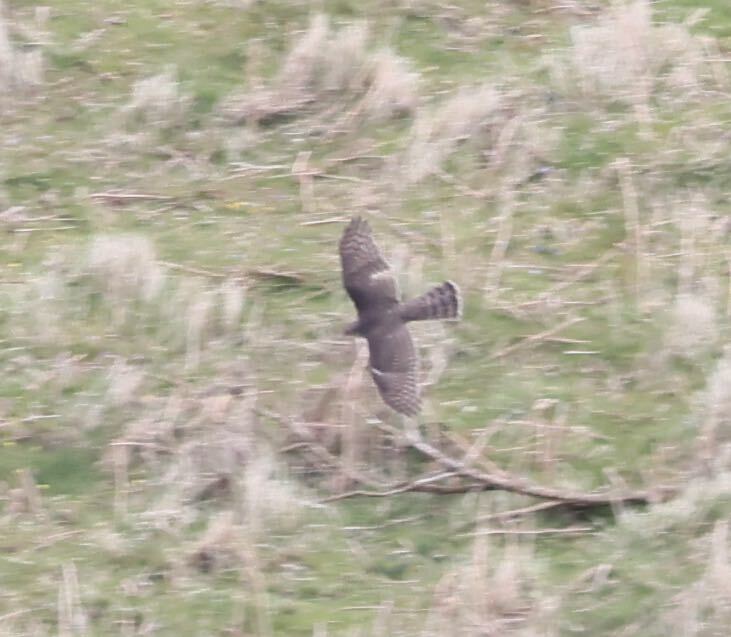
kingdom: Animalia
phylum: Chordata
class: Aves
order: Accipitriformes
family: Accipitridae
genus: Accipiter
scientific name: Accipiter nisus
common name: Eurasian sparrowhawk
